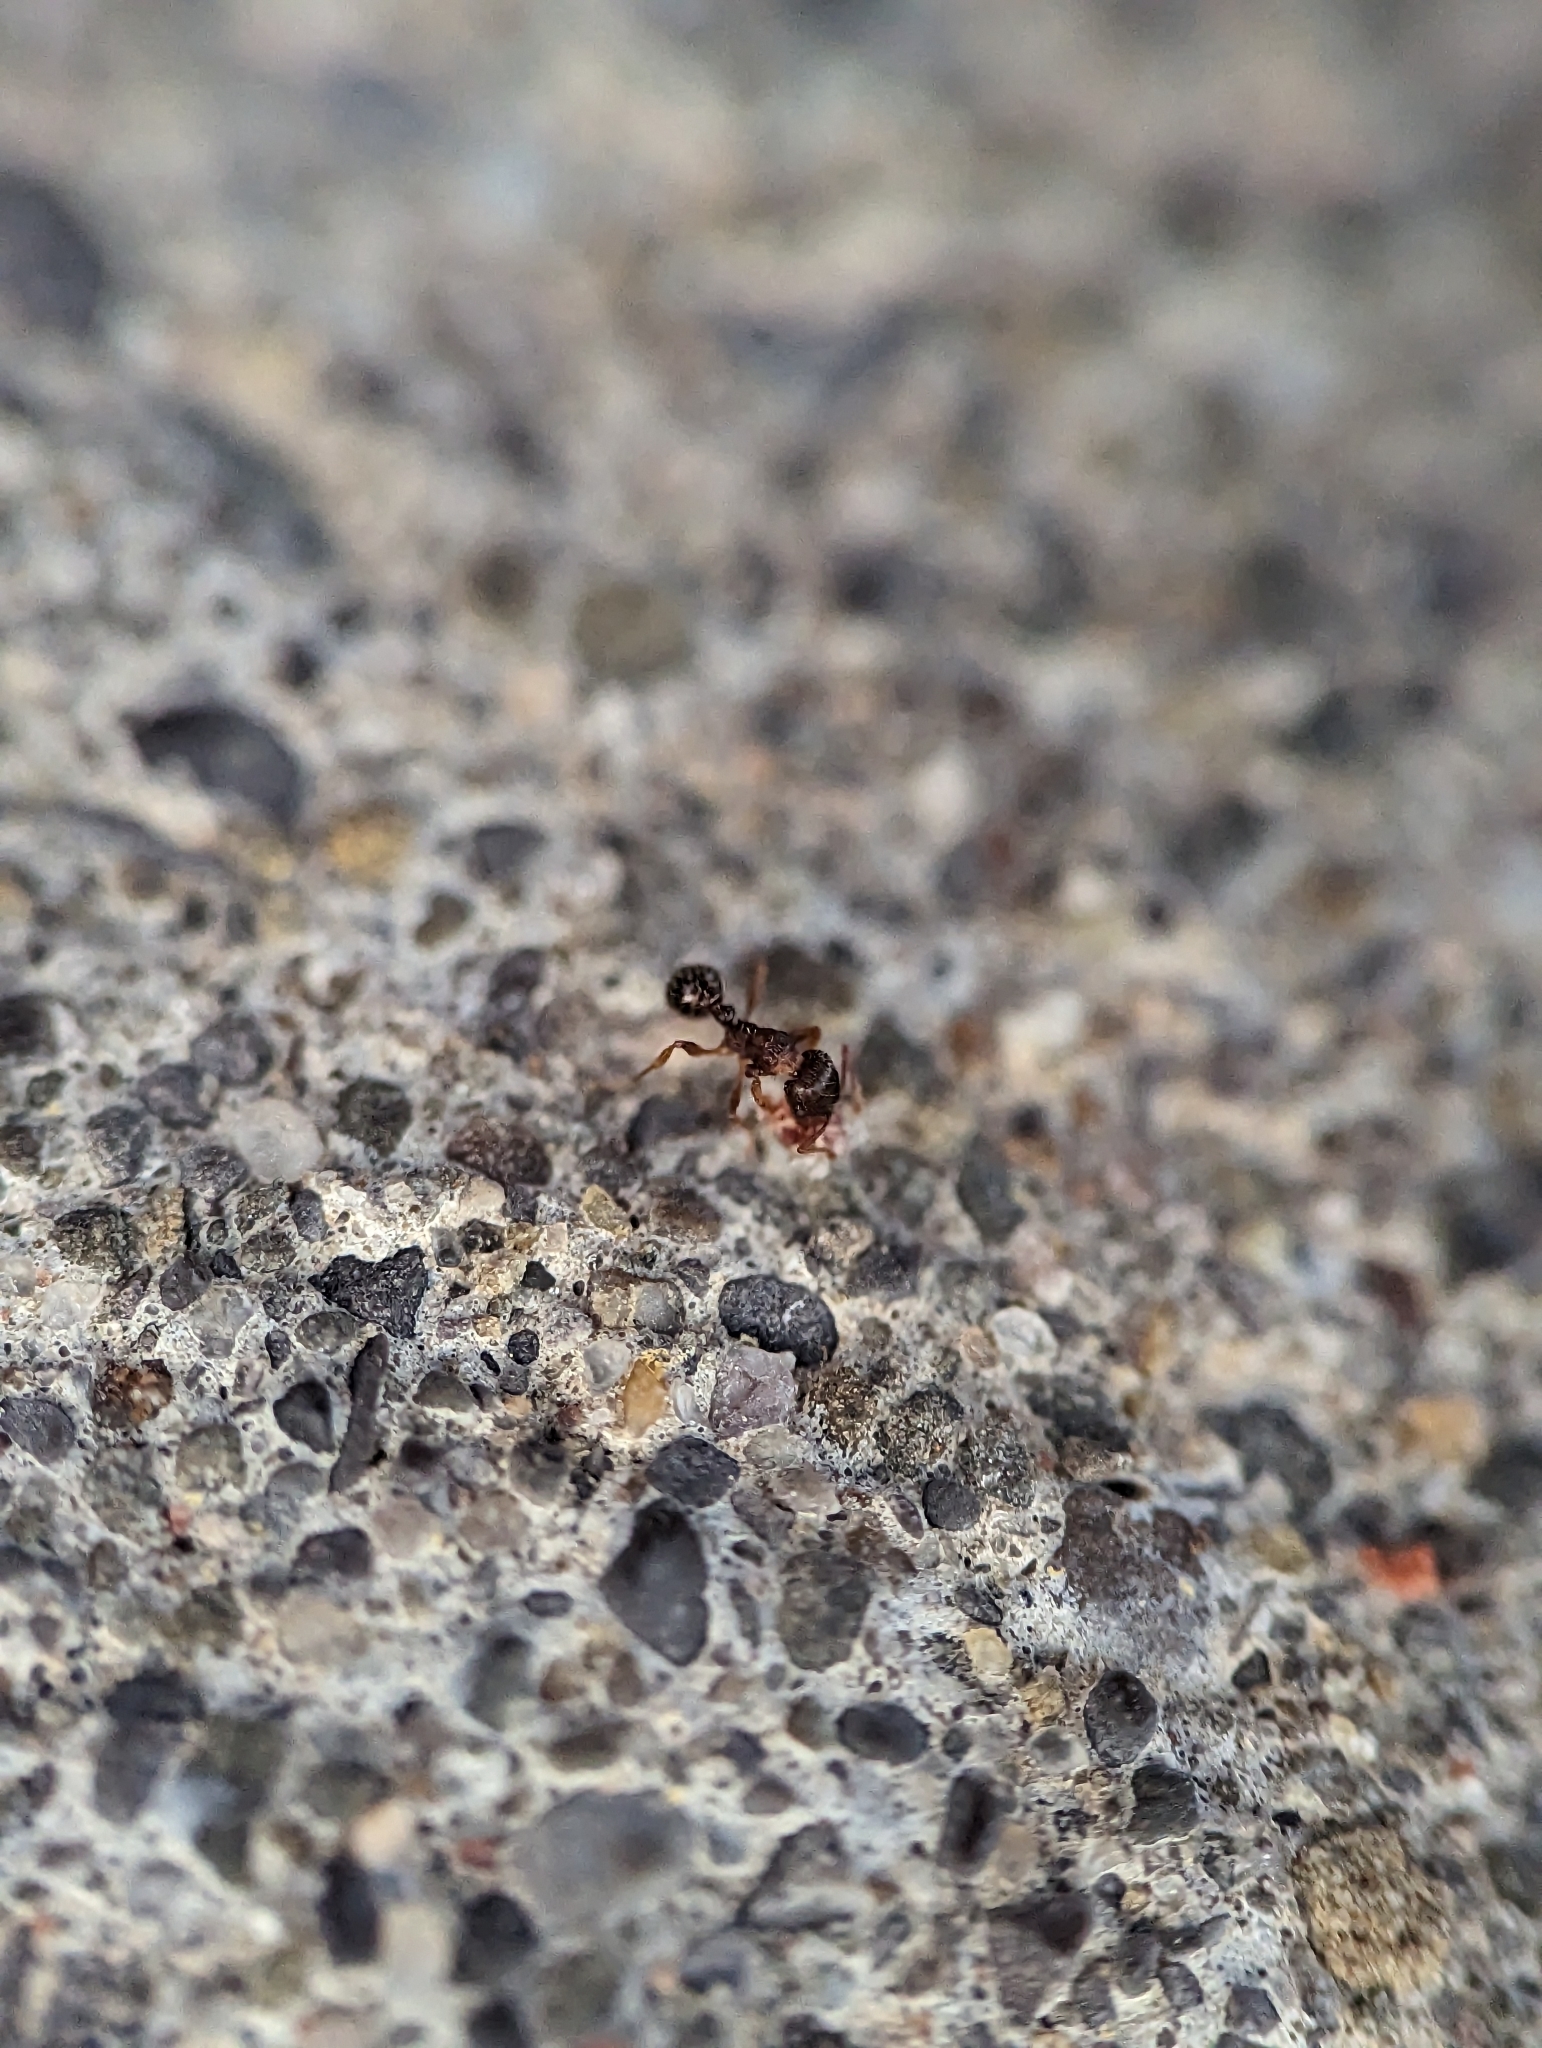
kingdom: Animalia
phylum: Arthropoda
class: Insecta
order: Hymenoptera
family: Formicidae
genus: Tetramorium
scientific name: Tetramorium immigrans
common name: Pavement ant
